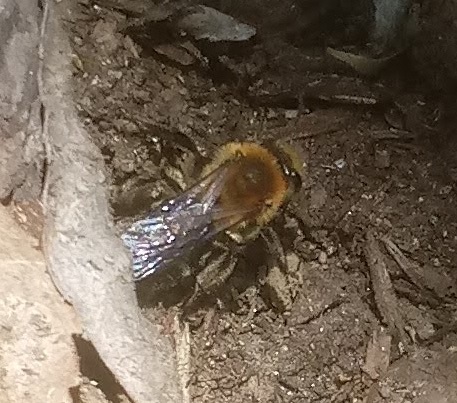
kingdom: Animalia
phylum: Arthropoda
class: Insecta
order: Hymenoptera
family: Andrenidae
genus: Andrena
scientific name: Andrena dunningi
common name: Dunning's miner
